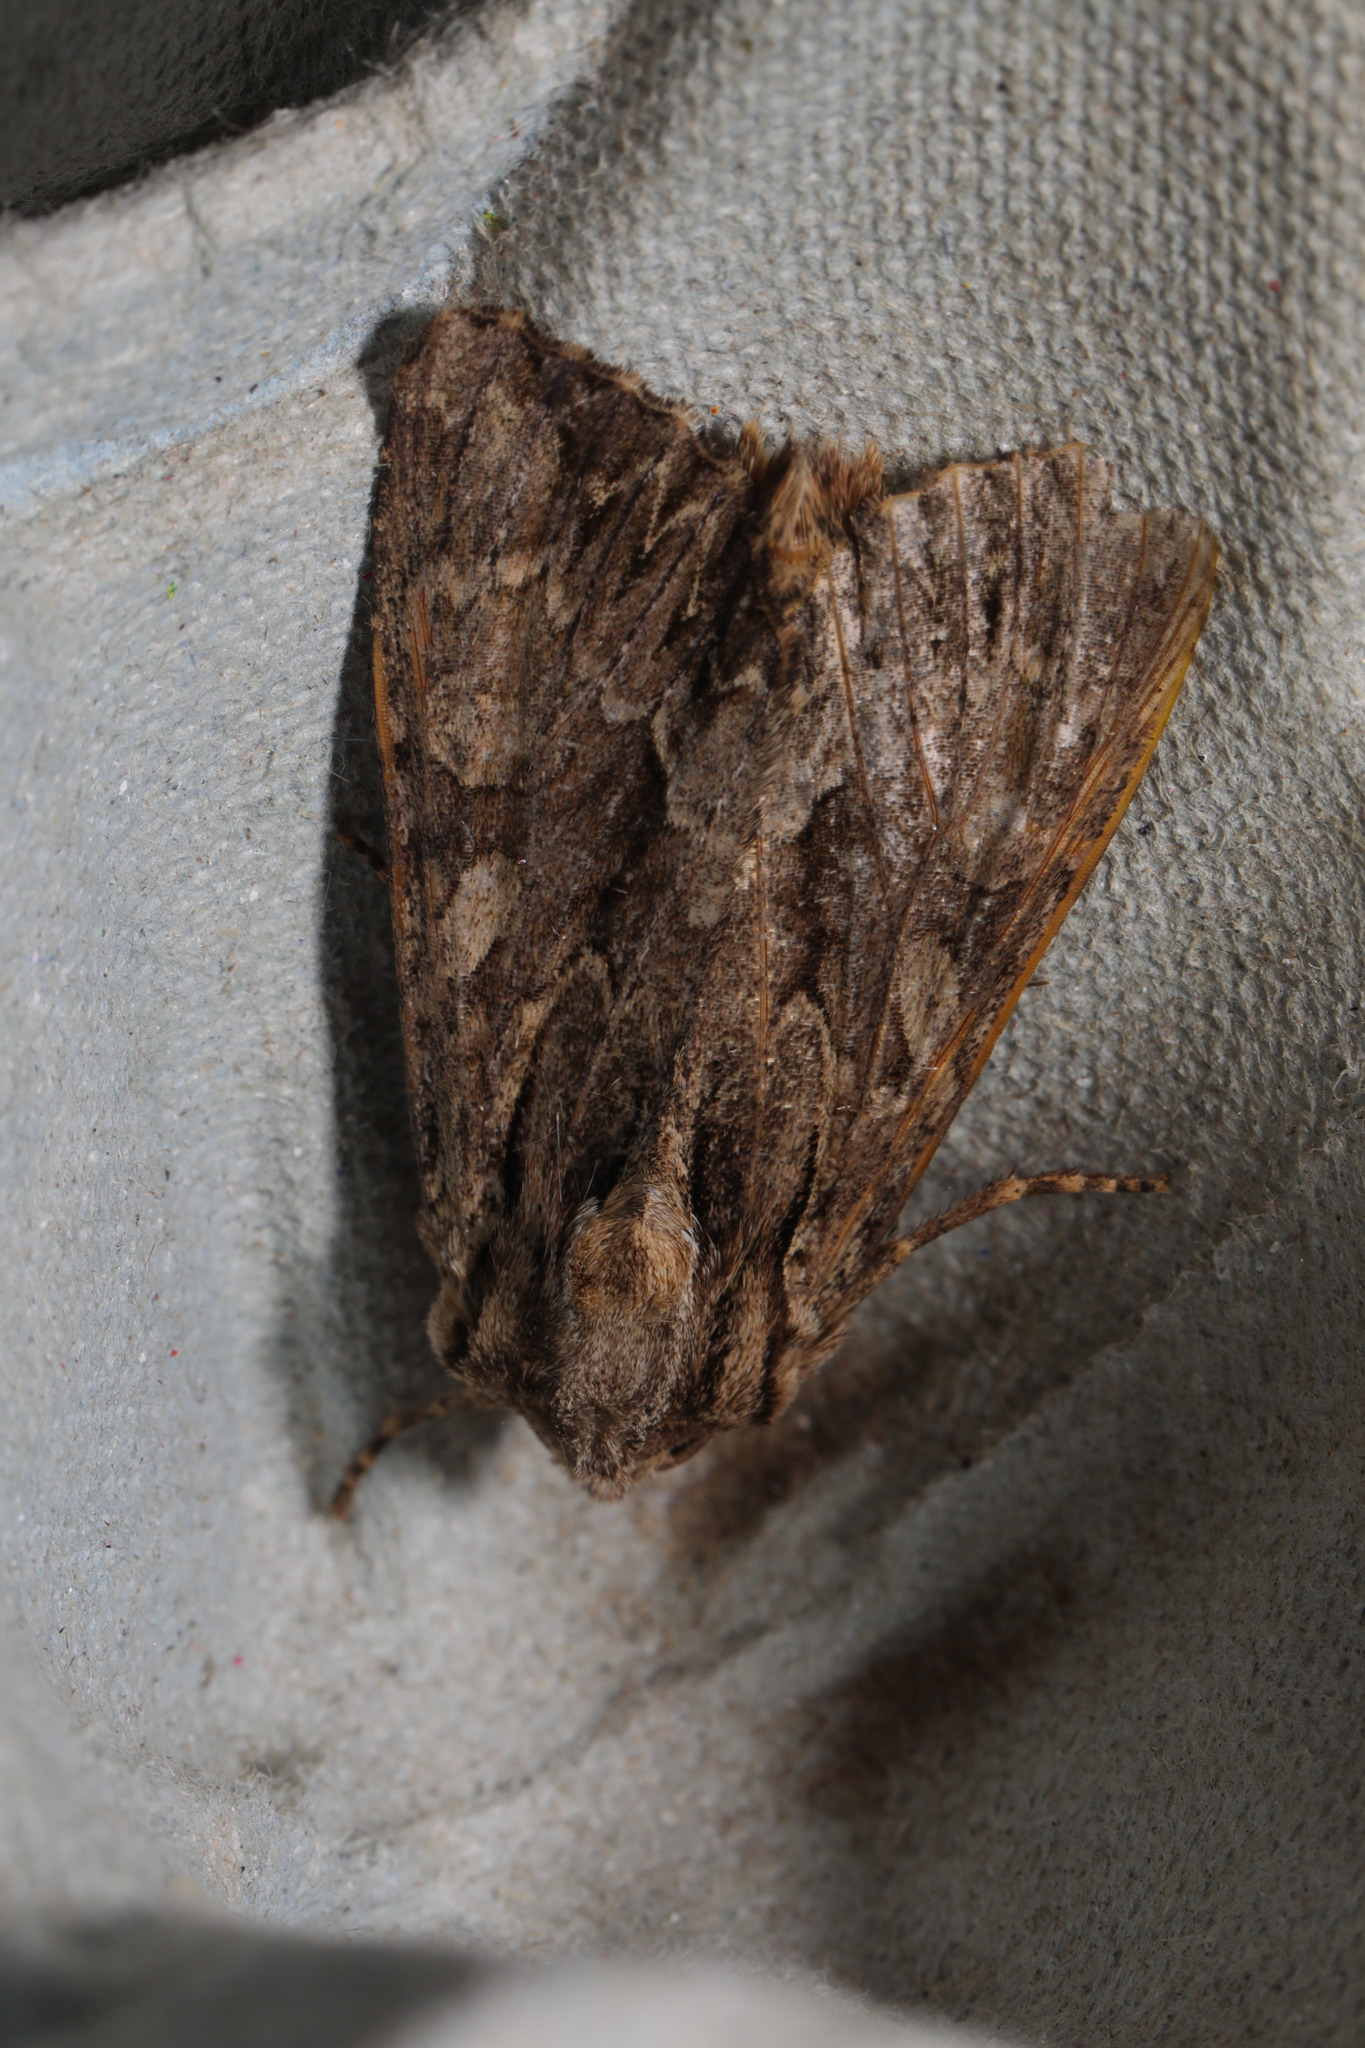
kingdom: Animalia
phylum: Arthropoda
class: Insecta
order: Lepidoptera
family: Noctuidae
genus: Apamea
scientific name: Apamea monoglypha
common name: Dark arches
